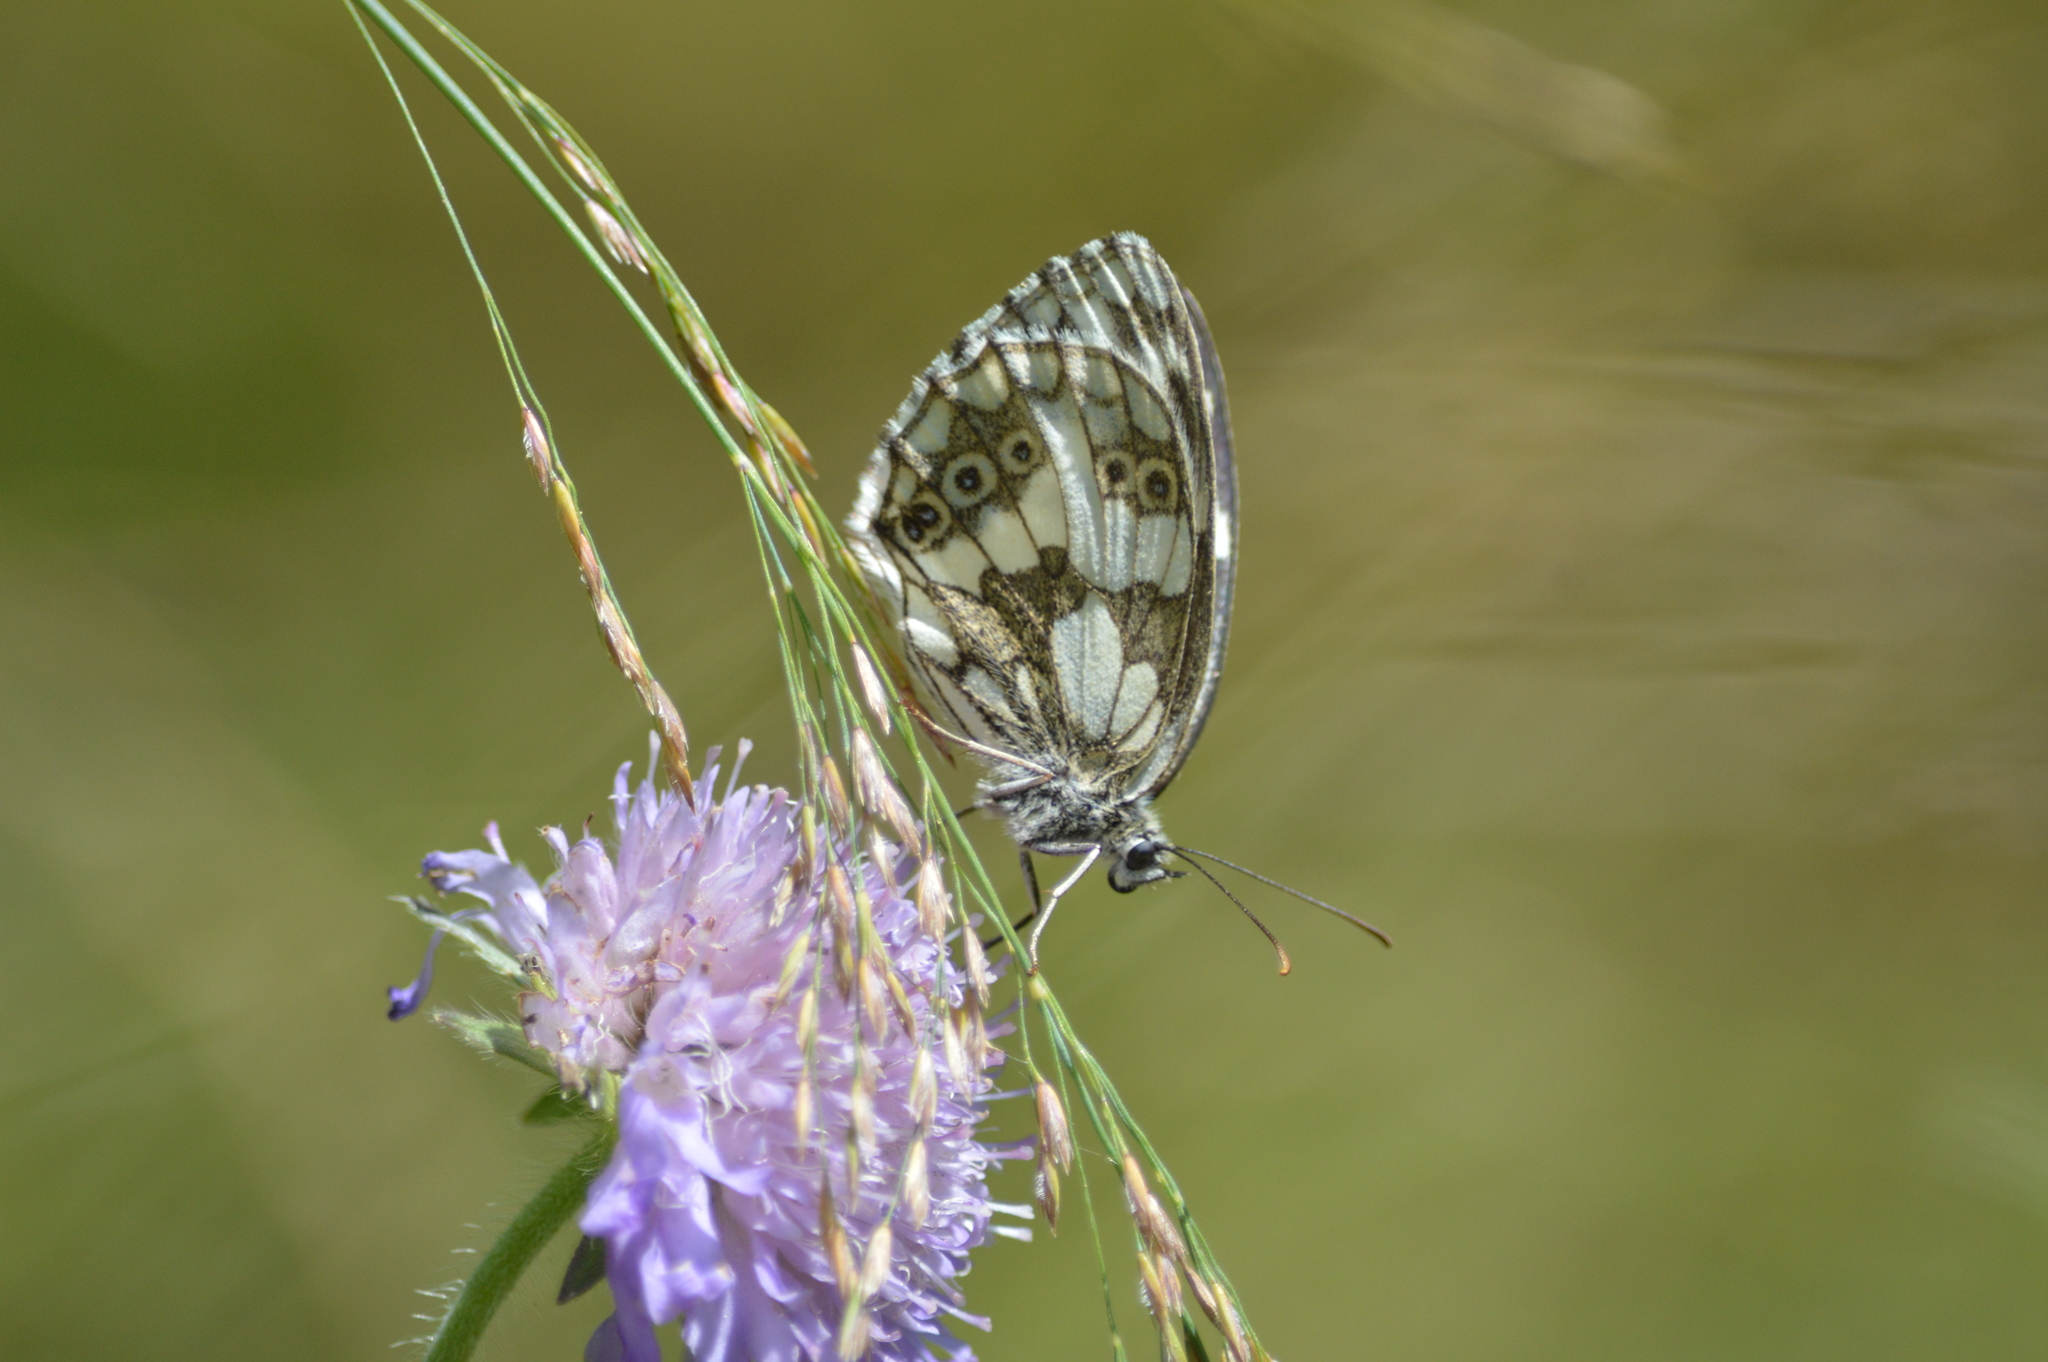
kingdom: Animalia
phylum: Arthropoda
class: Insecta
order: Lepidoptera
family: Nymphalidae
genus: Melanargia
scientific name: Melanargia galathea
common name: Marbled white
